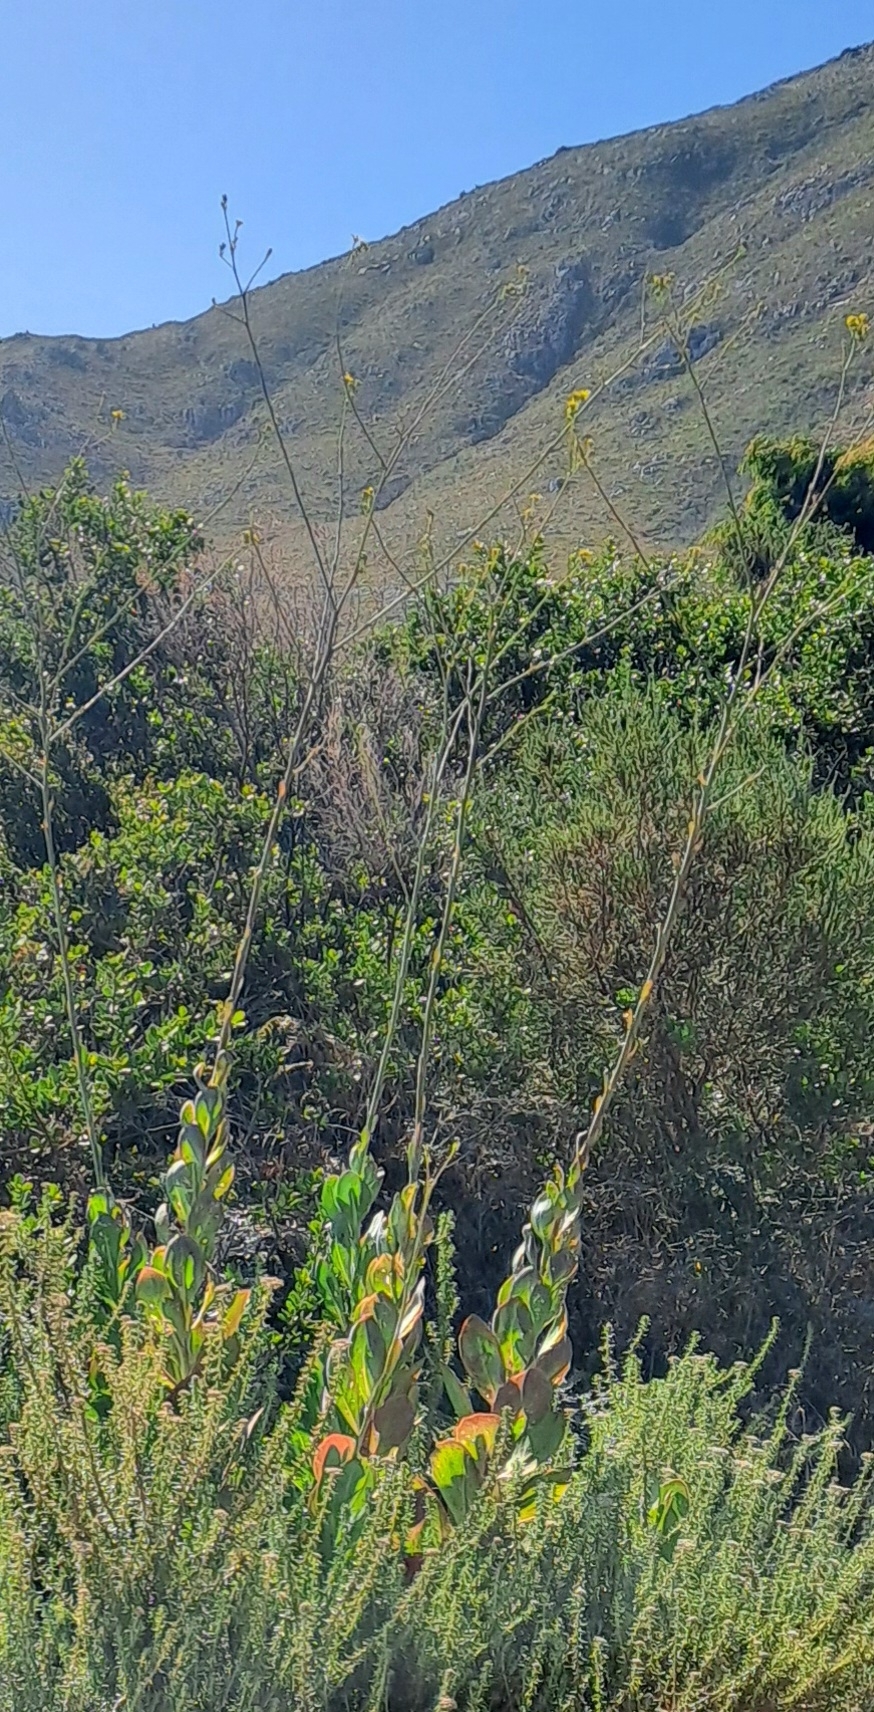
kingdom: Plantae
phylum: Tracheophyta
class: Magnoliopsida
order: Asterales
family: Asteraceae
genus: Othonna
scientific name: Othonna quinquedentata
